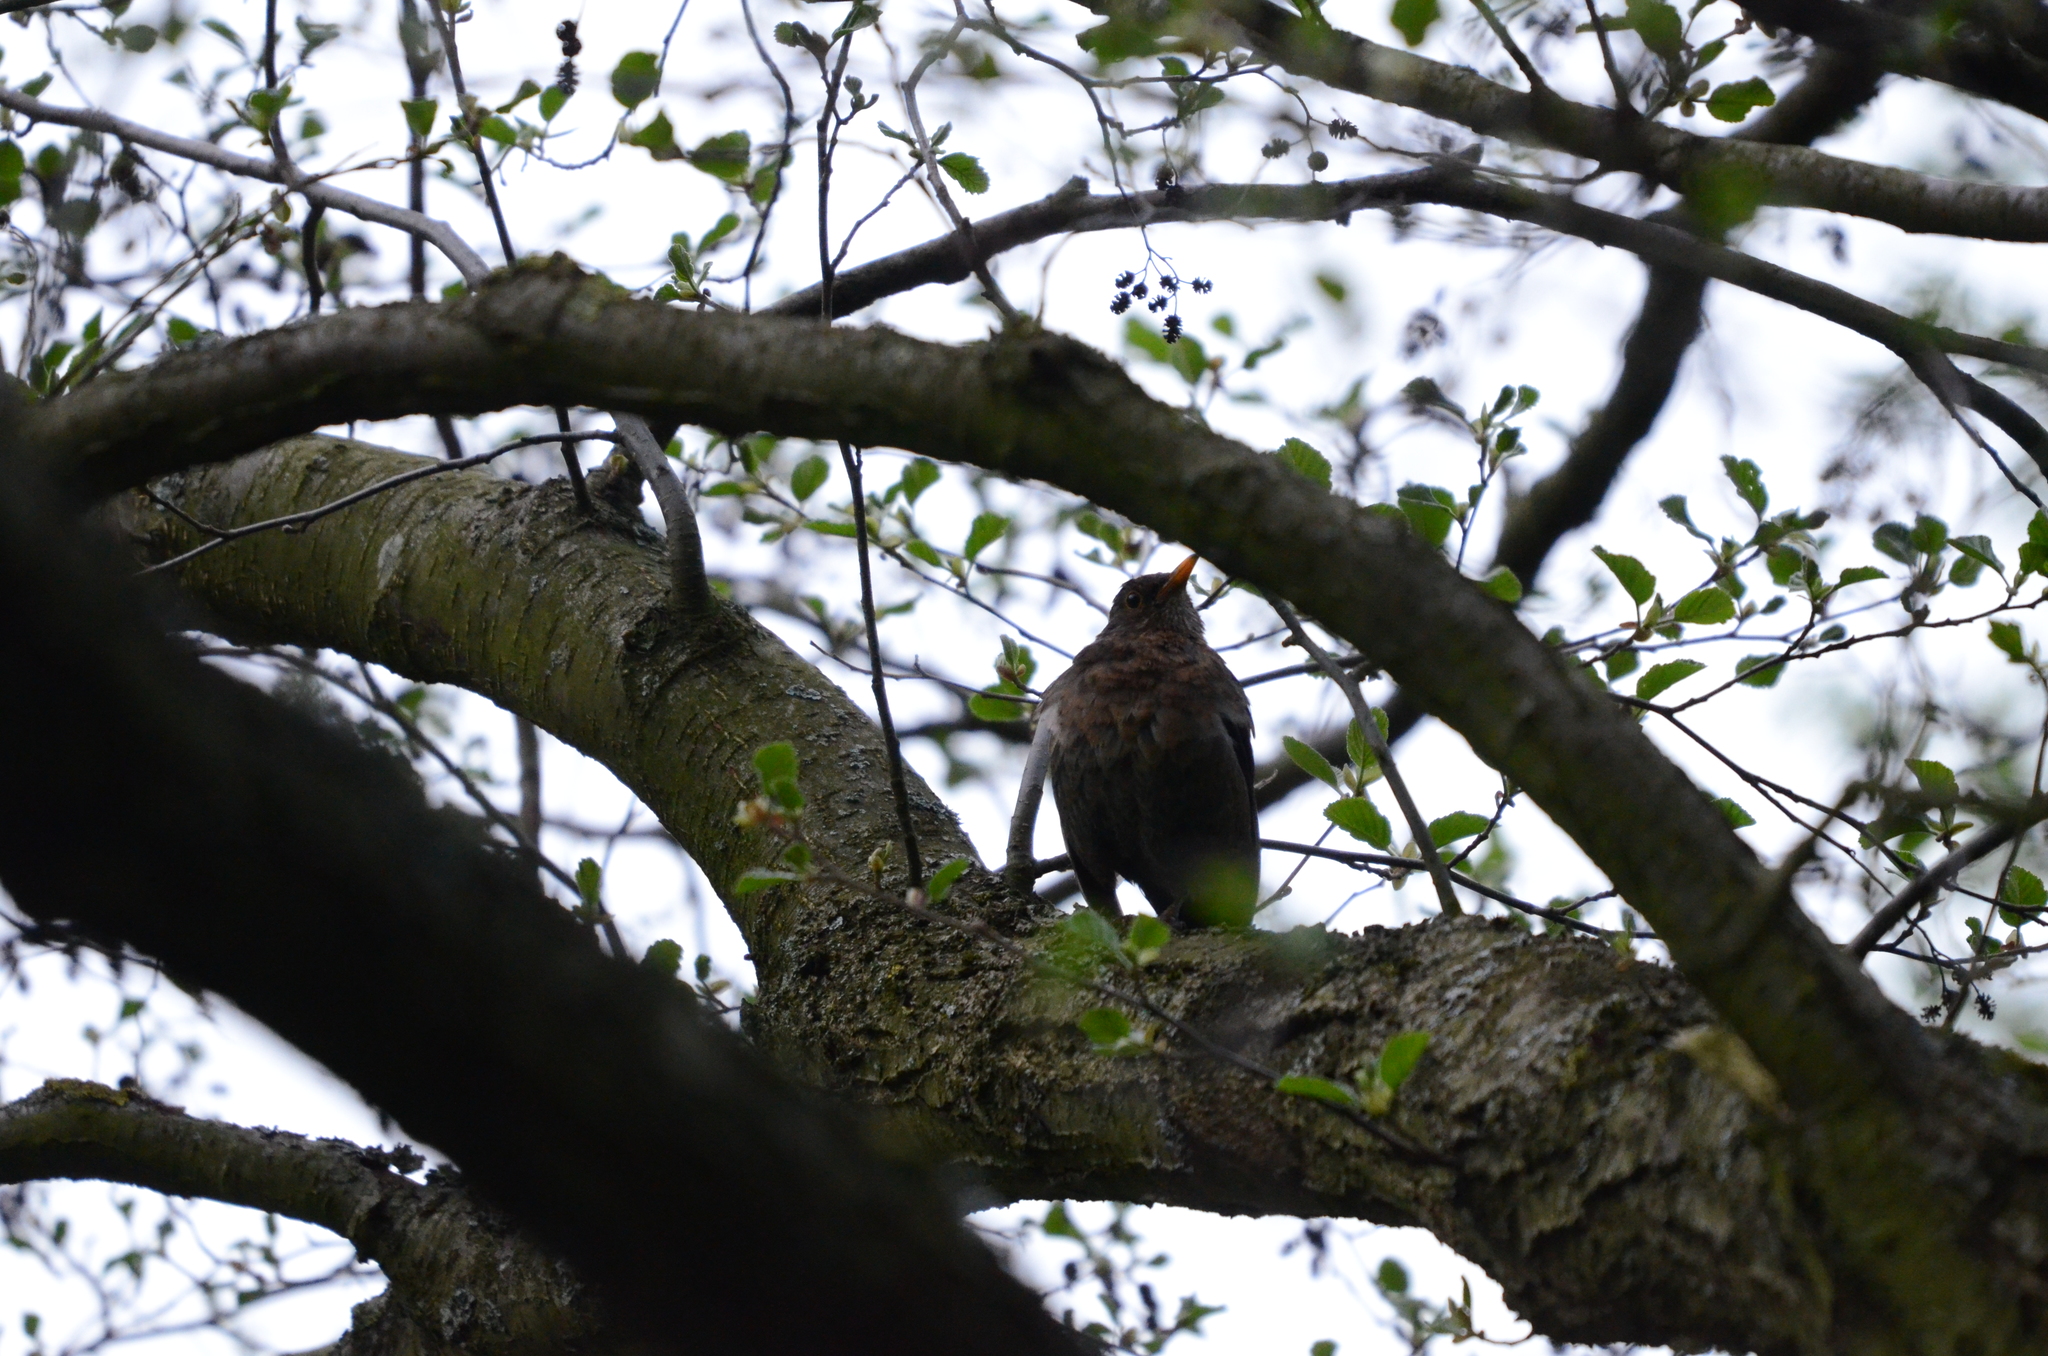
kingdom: Animalia
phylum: Chordata
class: Aves
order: Passeriformes
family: Turdidae
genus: Turdus
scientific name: Turdus merula
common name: Common blackbird
